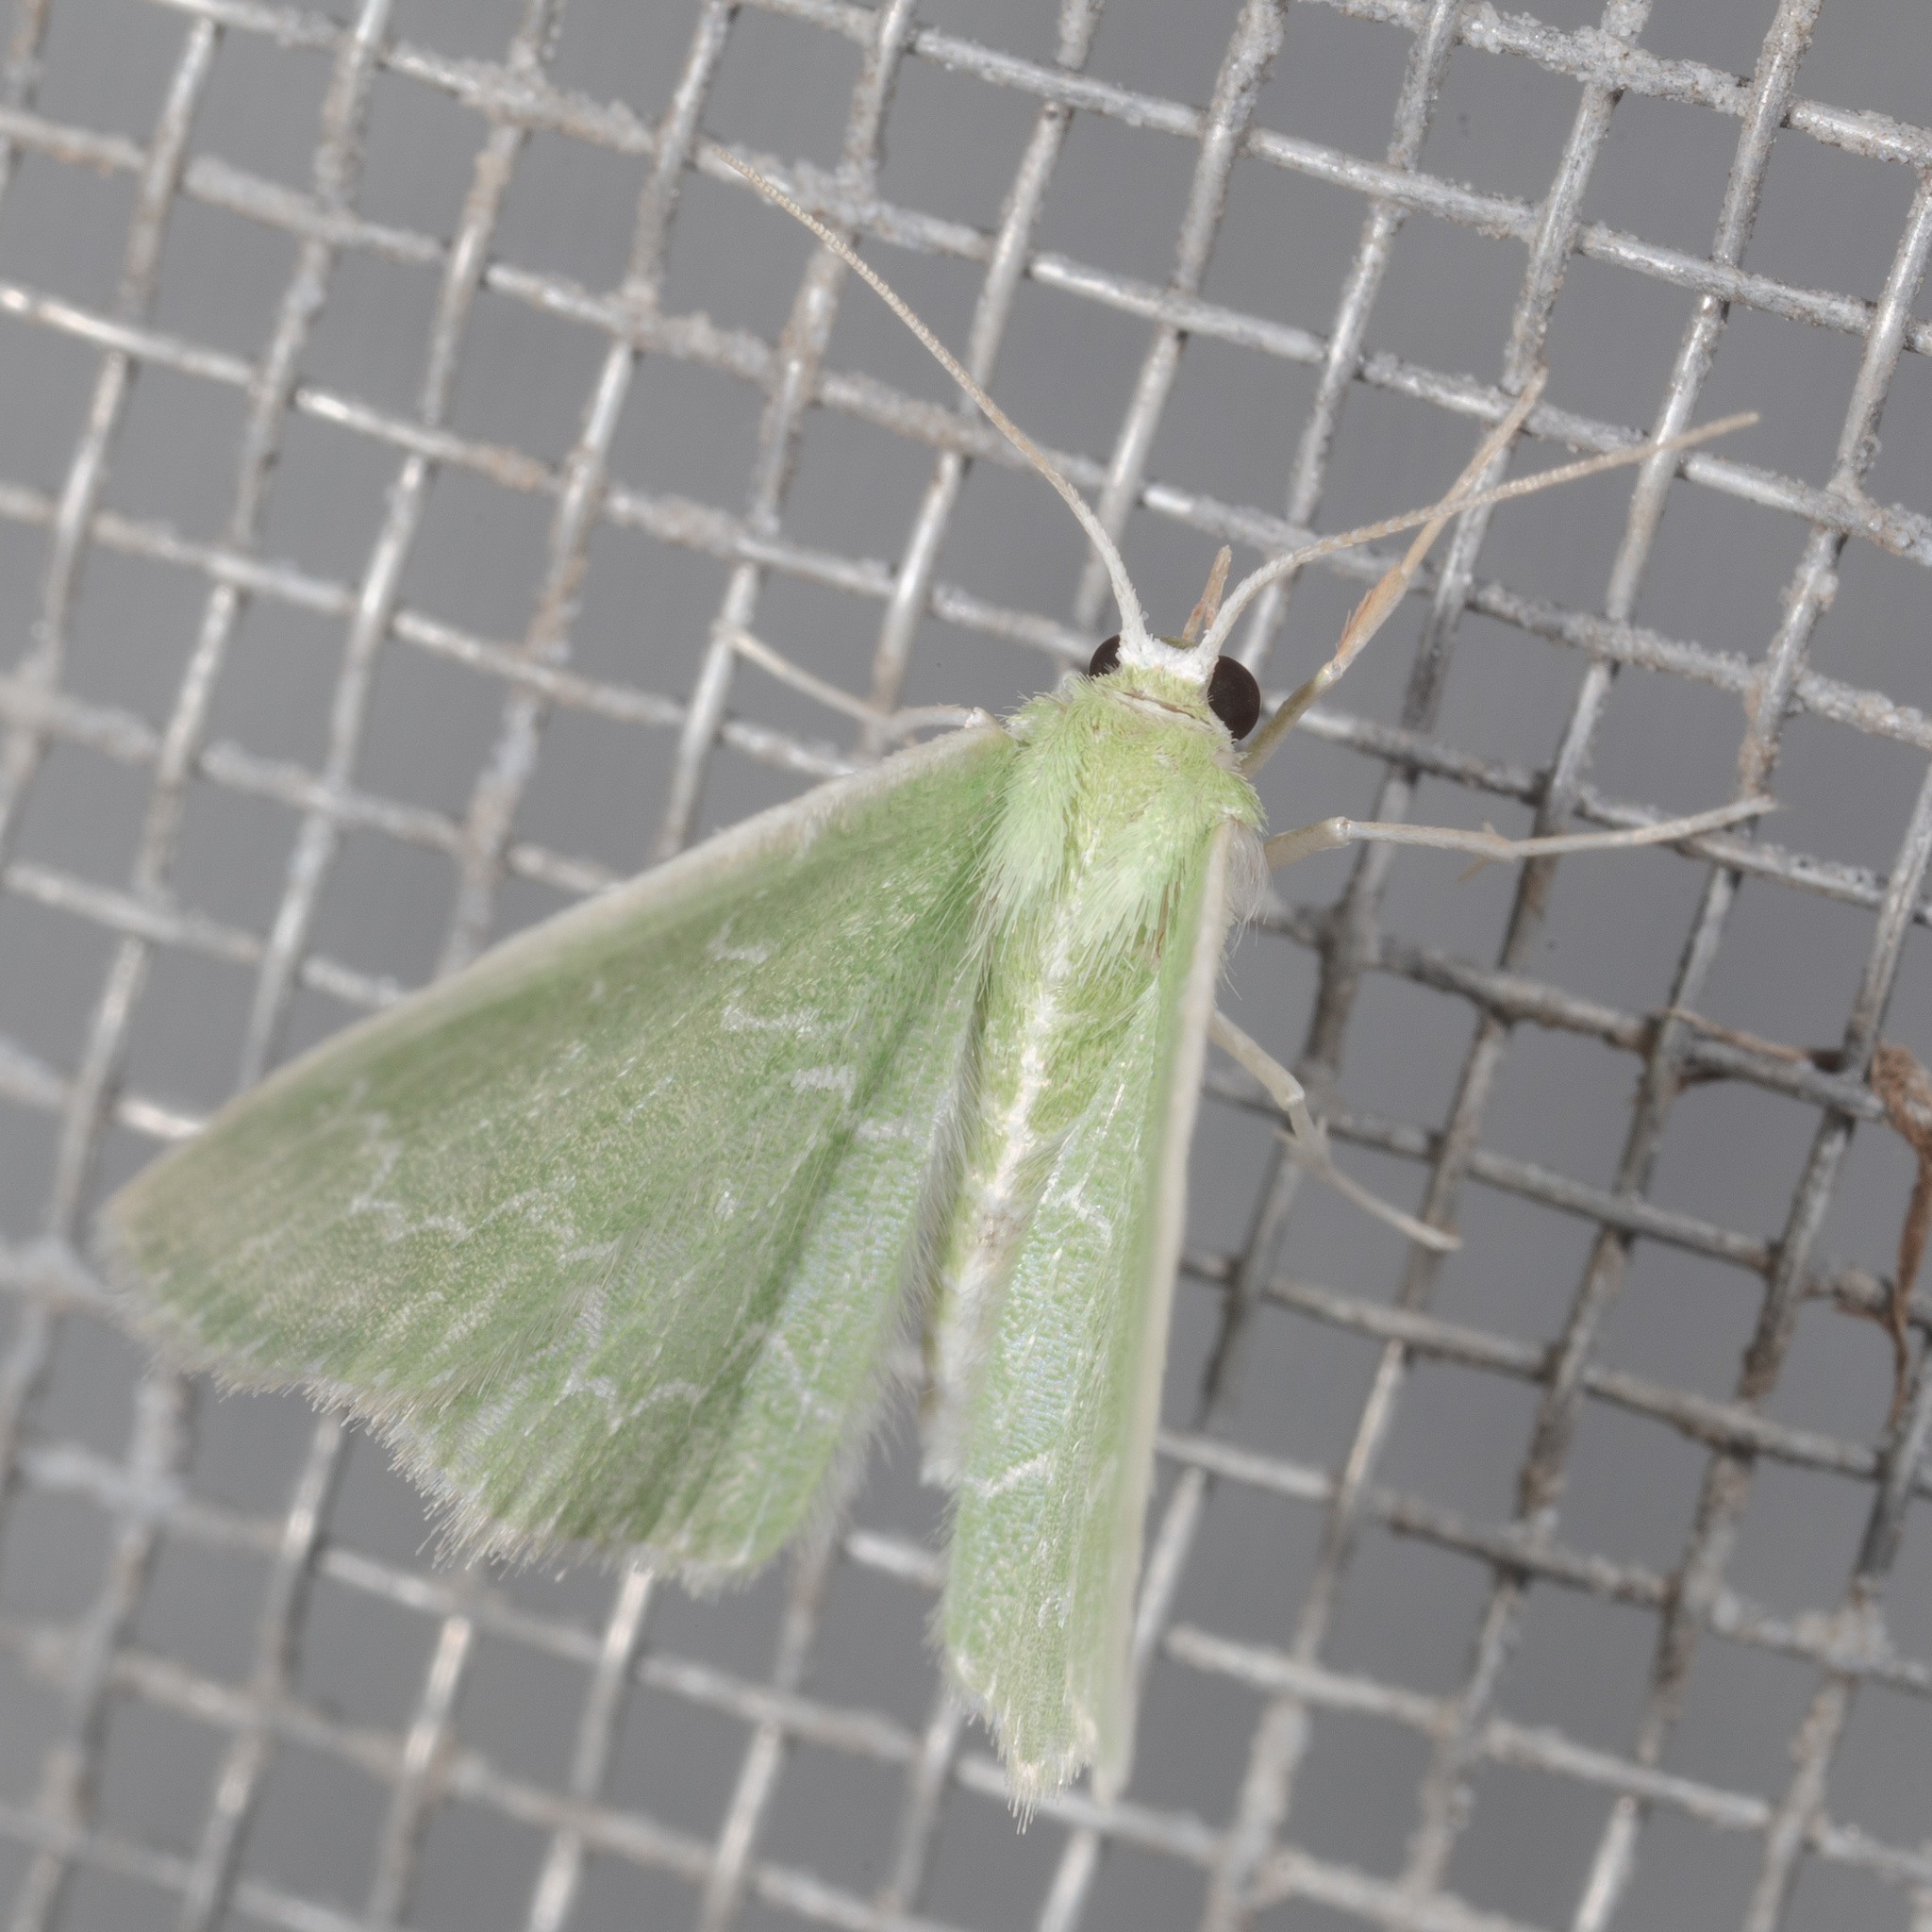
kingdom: Animalia
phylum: Arthropoda
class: Insecta
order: Lepidoptera
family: Geometridae
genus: Synchlora
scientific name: Synchlora frondaria
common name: Southern emerald
